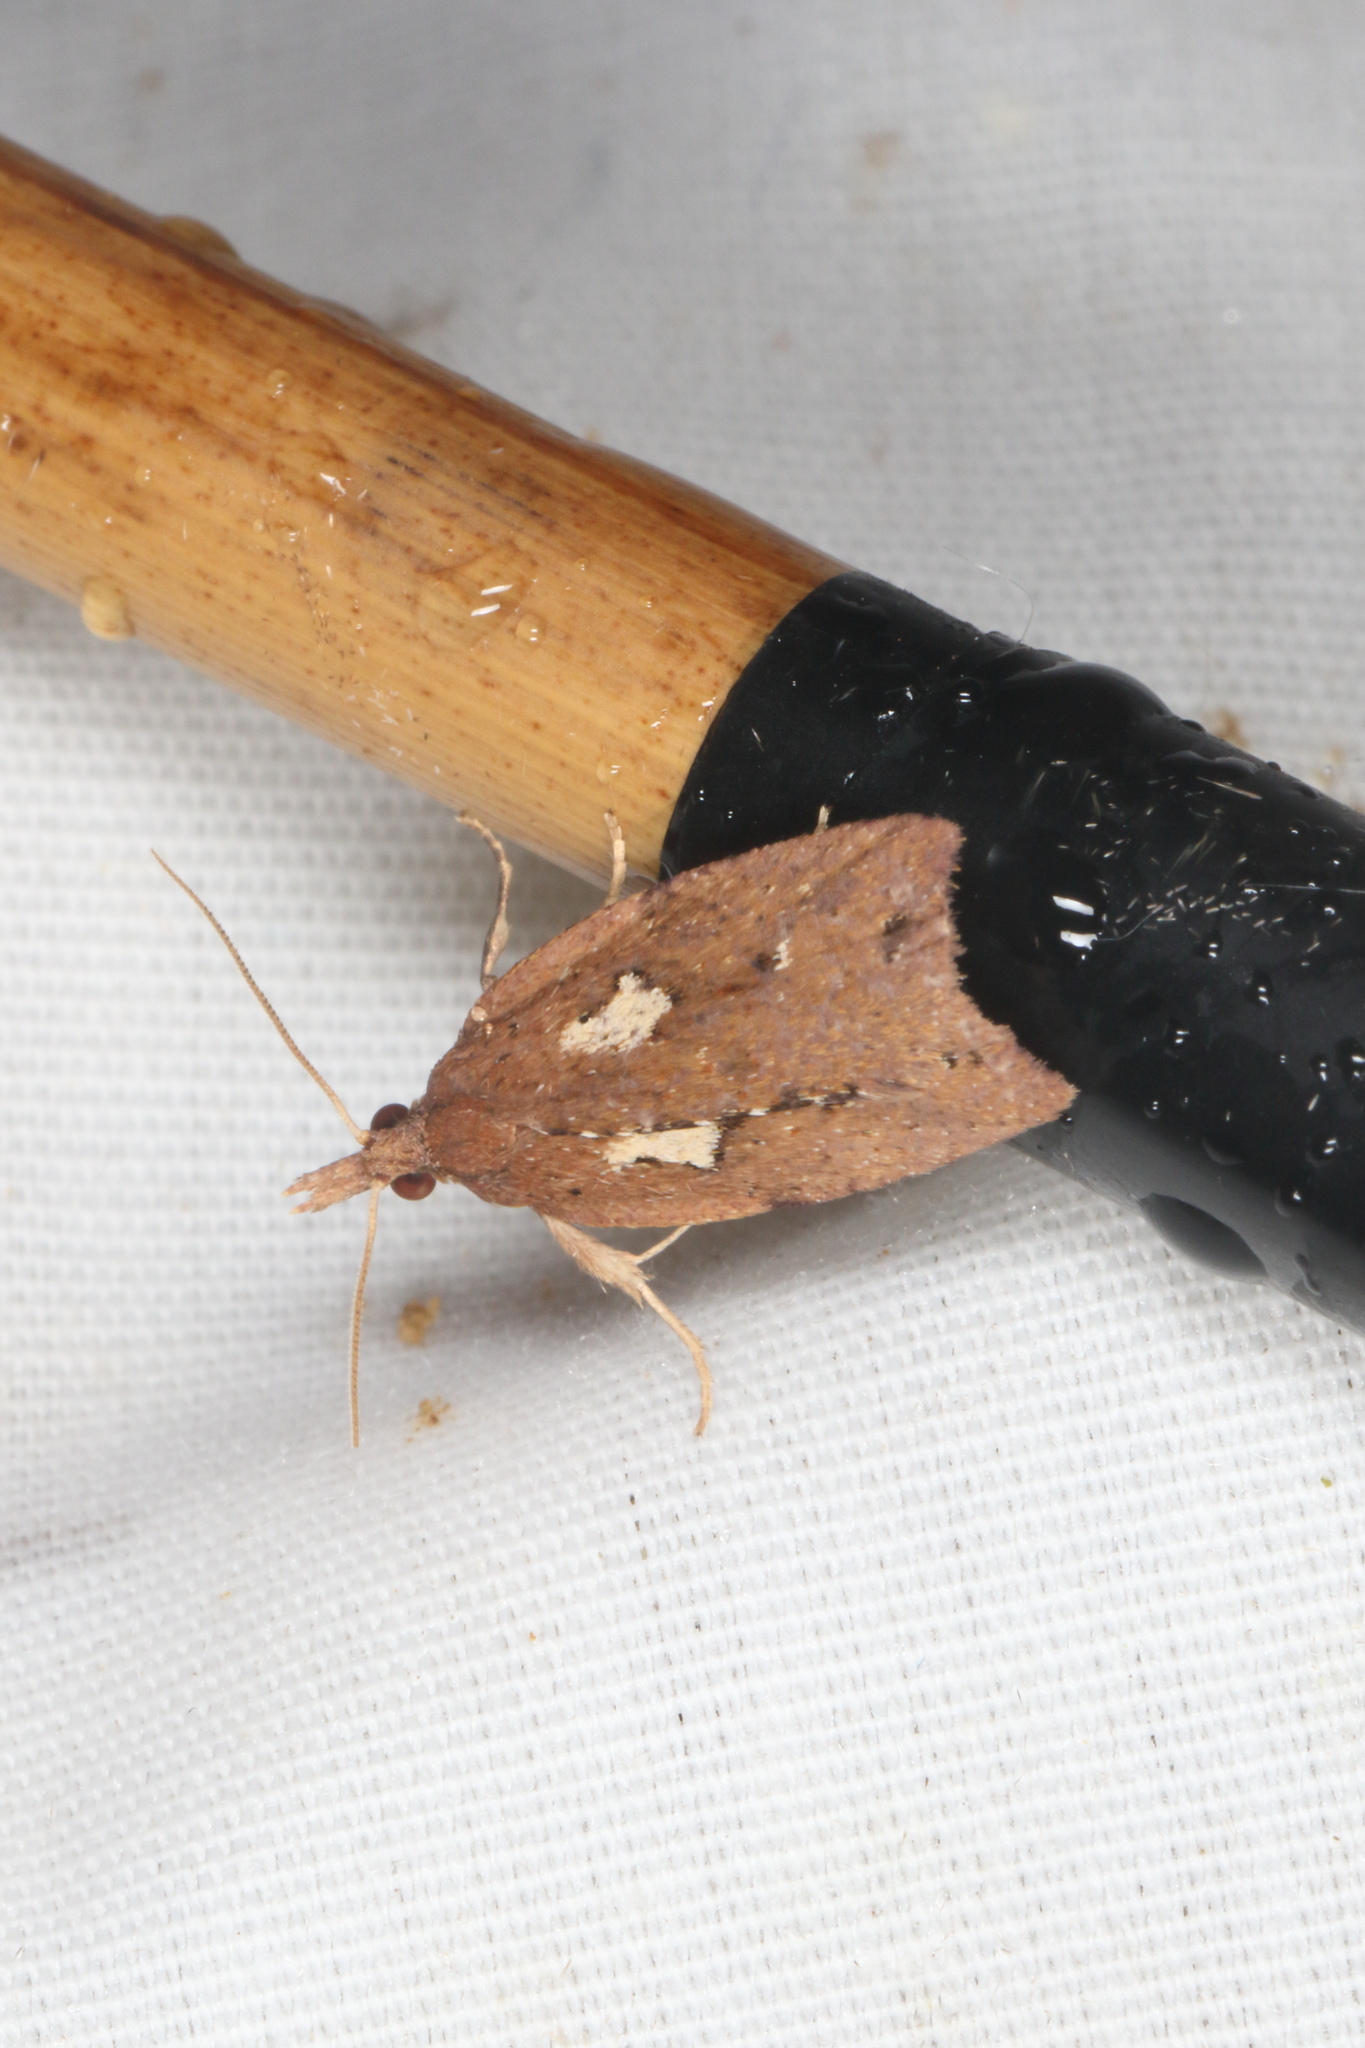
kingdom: Animalia
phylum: Arthropoda
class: Insecta
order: Lepidoptera
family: Tortricidae
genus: Planotortrix
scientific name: Planotortrix notophaea
